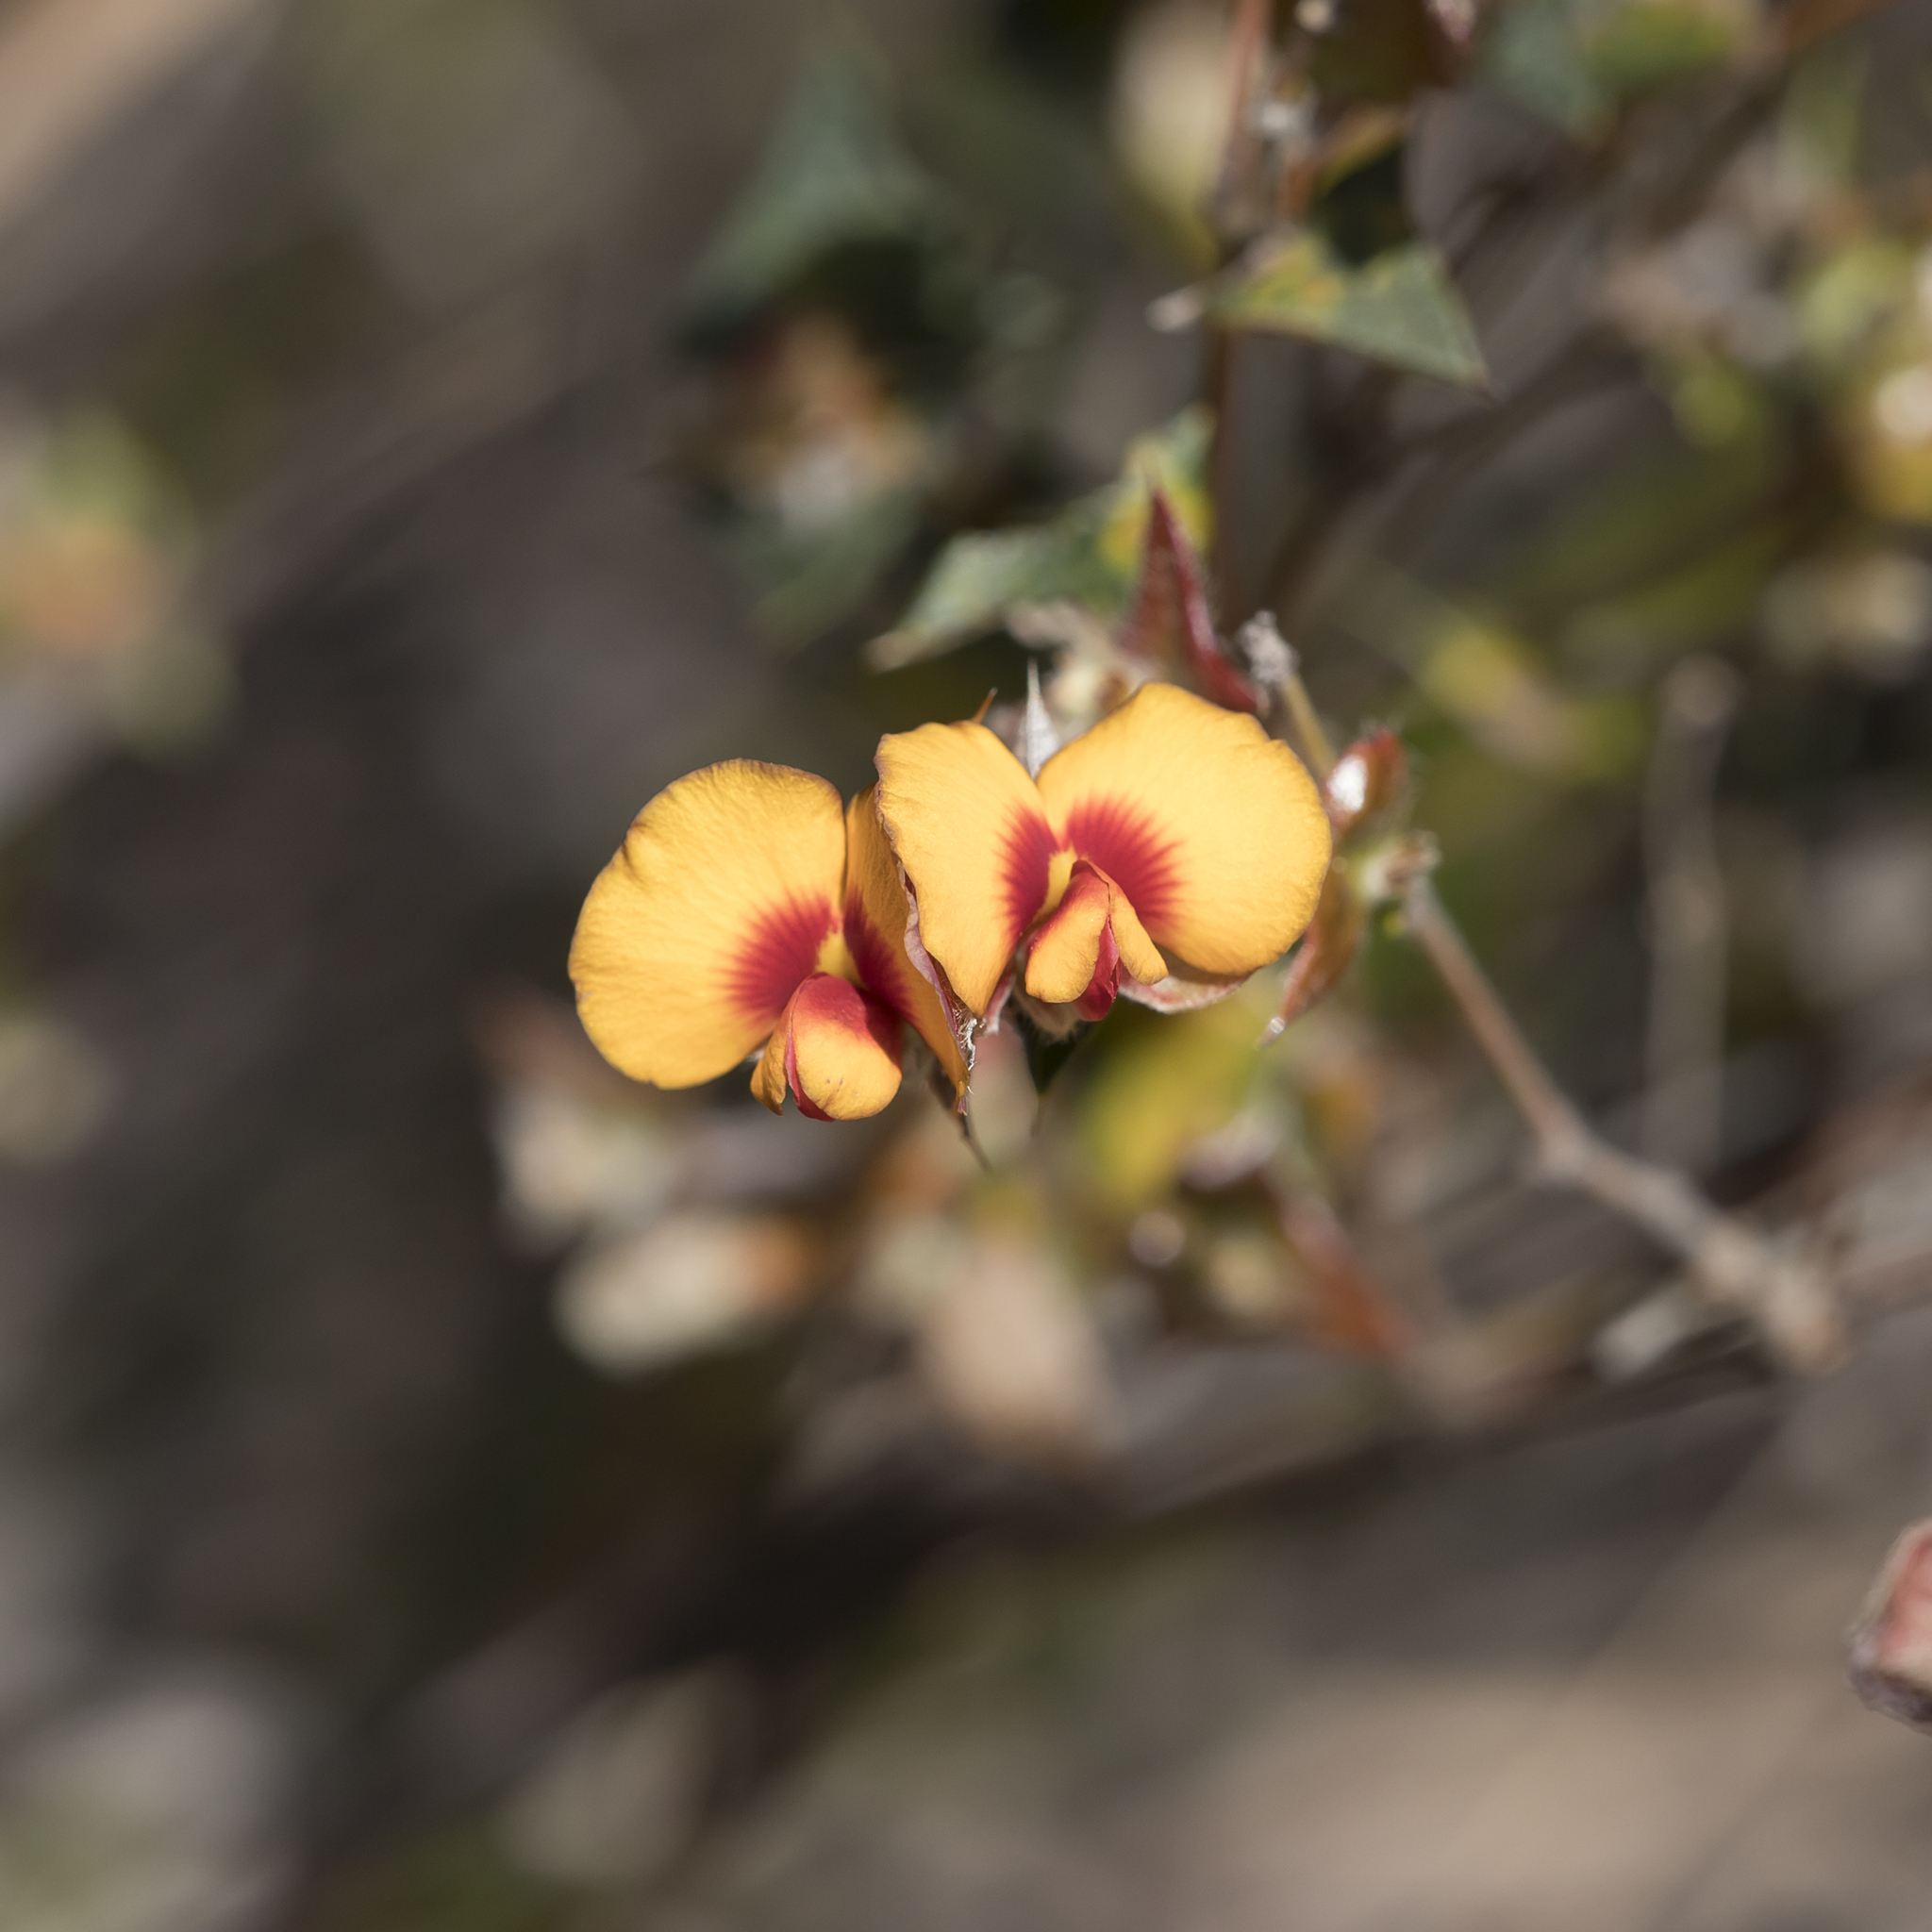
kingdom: Plantae
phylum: Tracheophyta
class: Magnoliopsida
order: Fabales
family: Fabaceae
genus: Platylobium
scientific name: Platylobium obtusangulum
